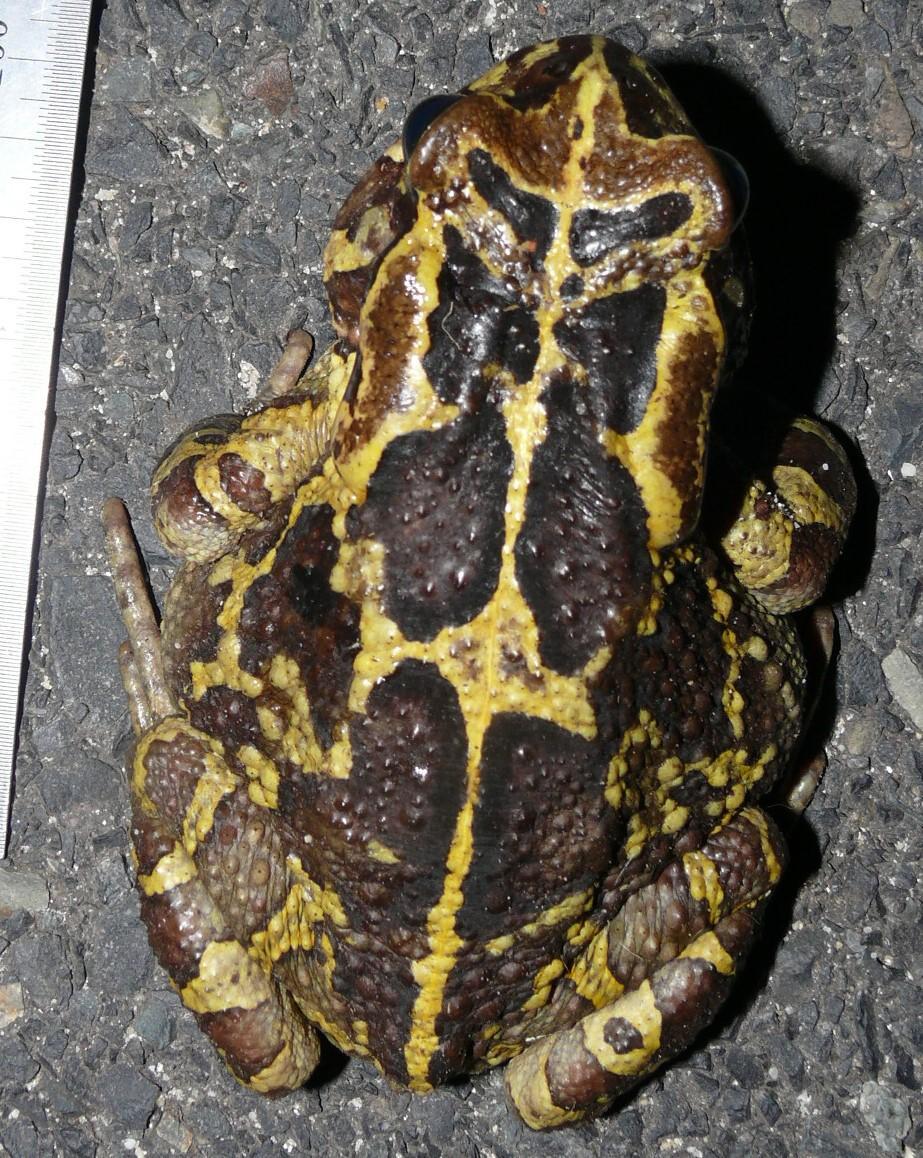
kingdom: Animalia
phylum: Chordata
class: Amphibia
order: Anura
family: Bufonidae
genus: Sclerophrys
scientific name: Sclerophrys pantherina
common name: Panther toad
